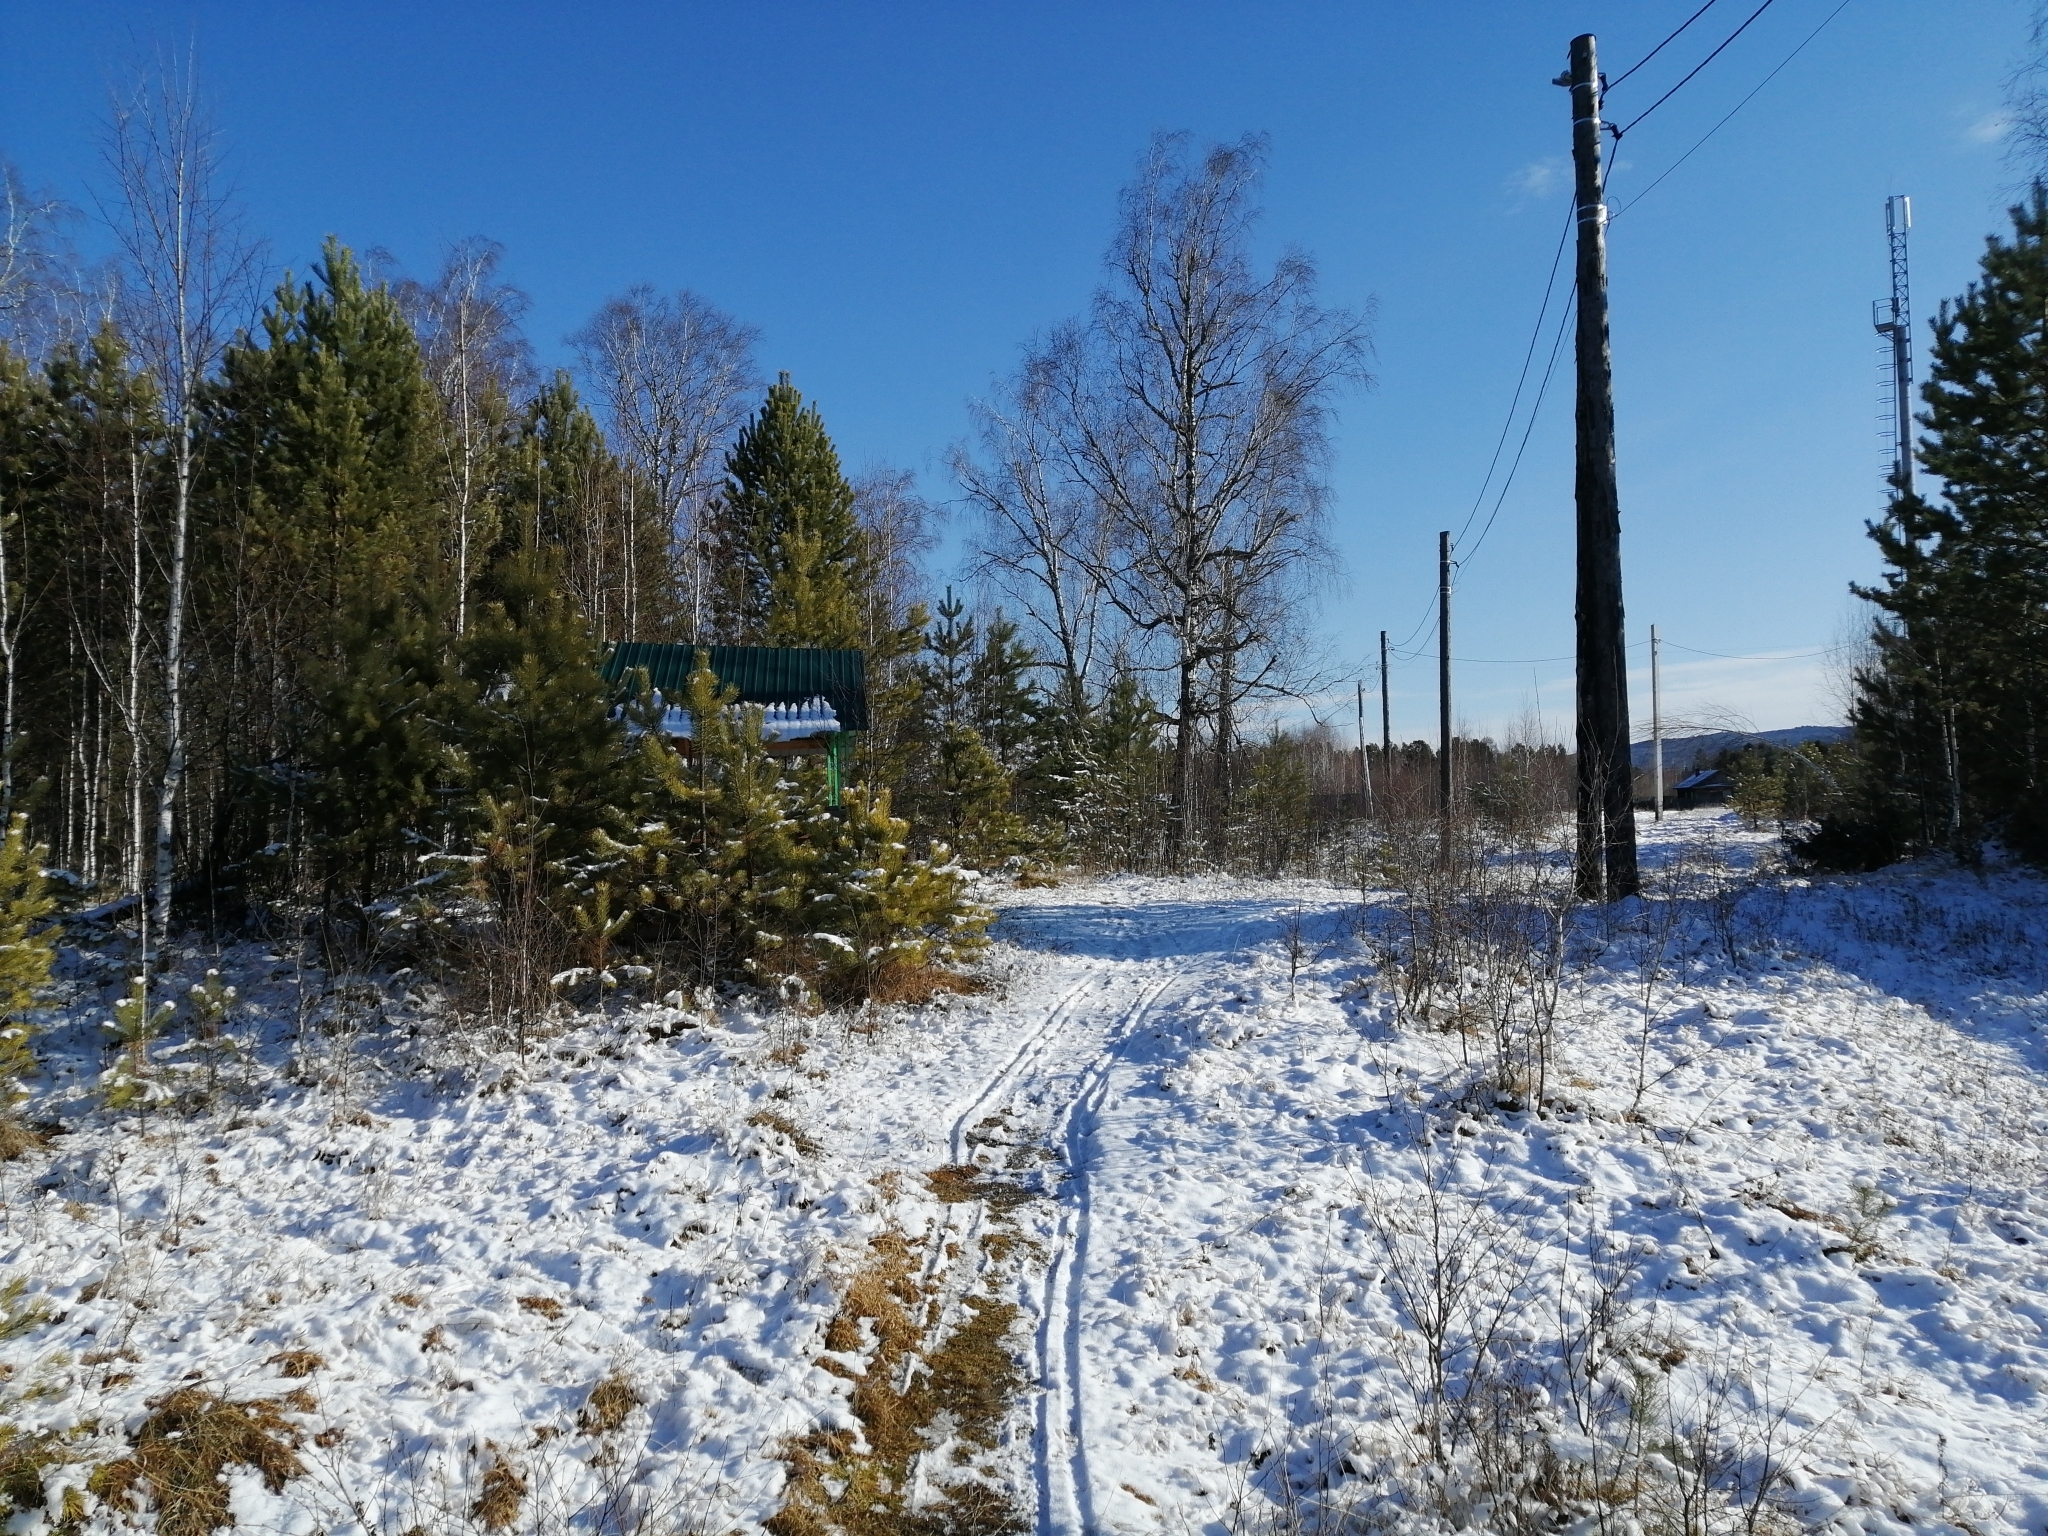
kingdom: Plantae
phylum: Tracheophyta
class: Pinopsida
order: Pinales
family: Pinaceae
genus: Pinus
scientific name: Pinus sylvestris
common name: Scots pine
